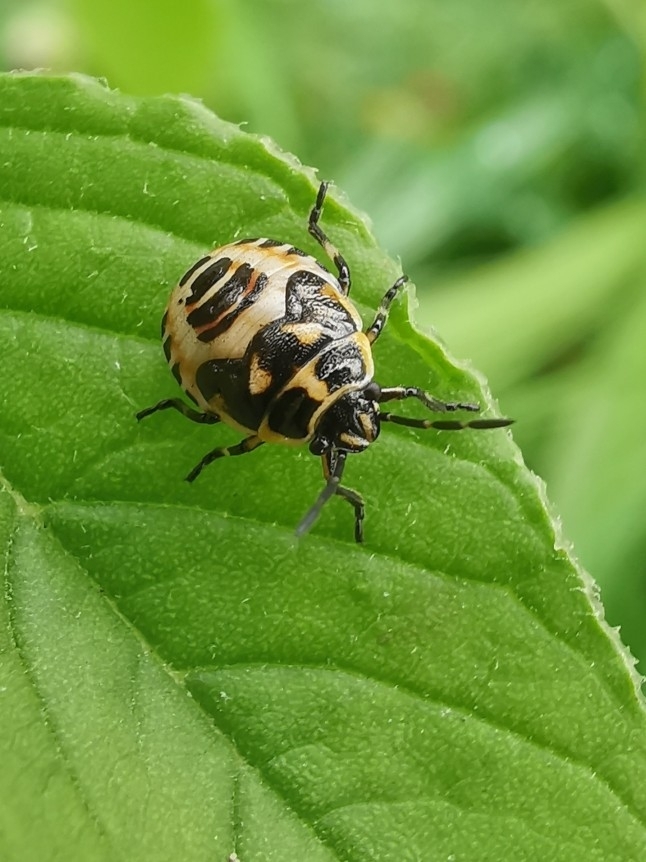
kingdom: Animalia
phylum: Arthropoda
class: Insecta
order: Hemiptera
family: Pentatomidae
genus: Eurydema
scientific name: Eurydema oleracea
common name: Cabbage bug
